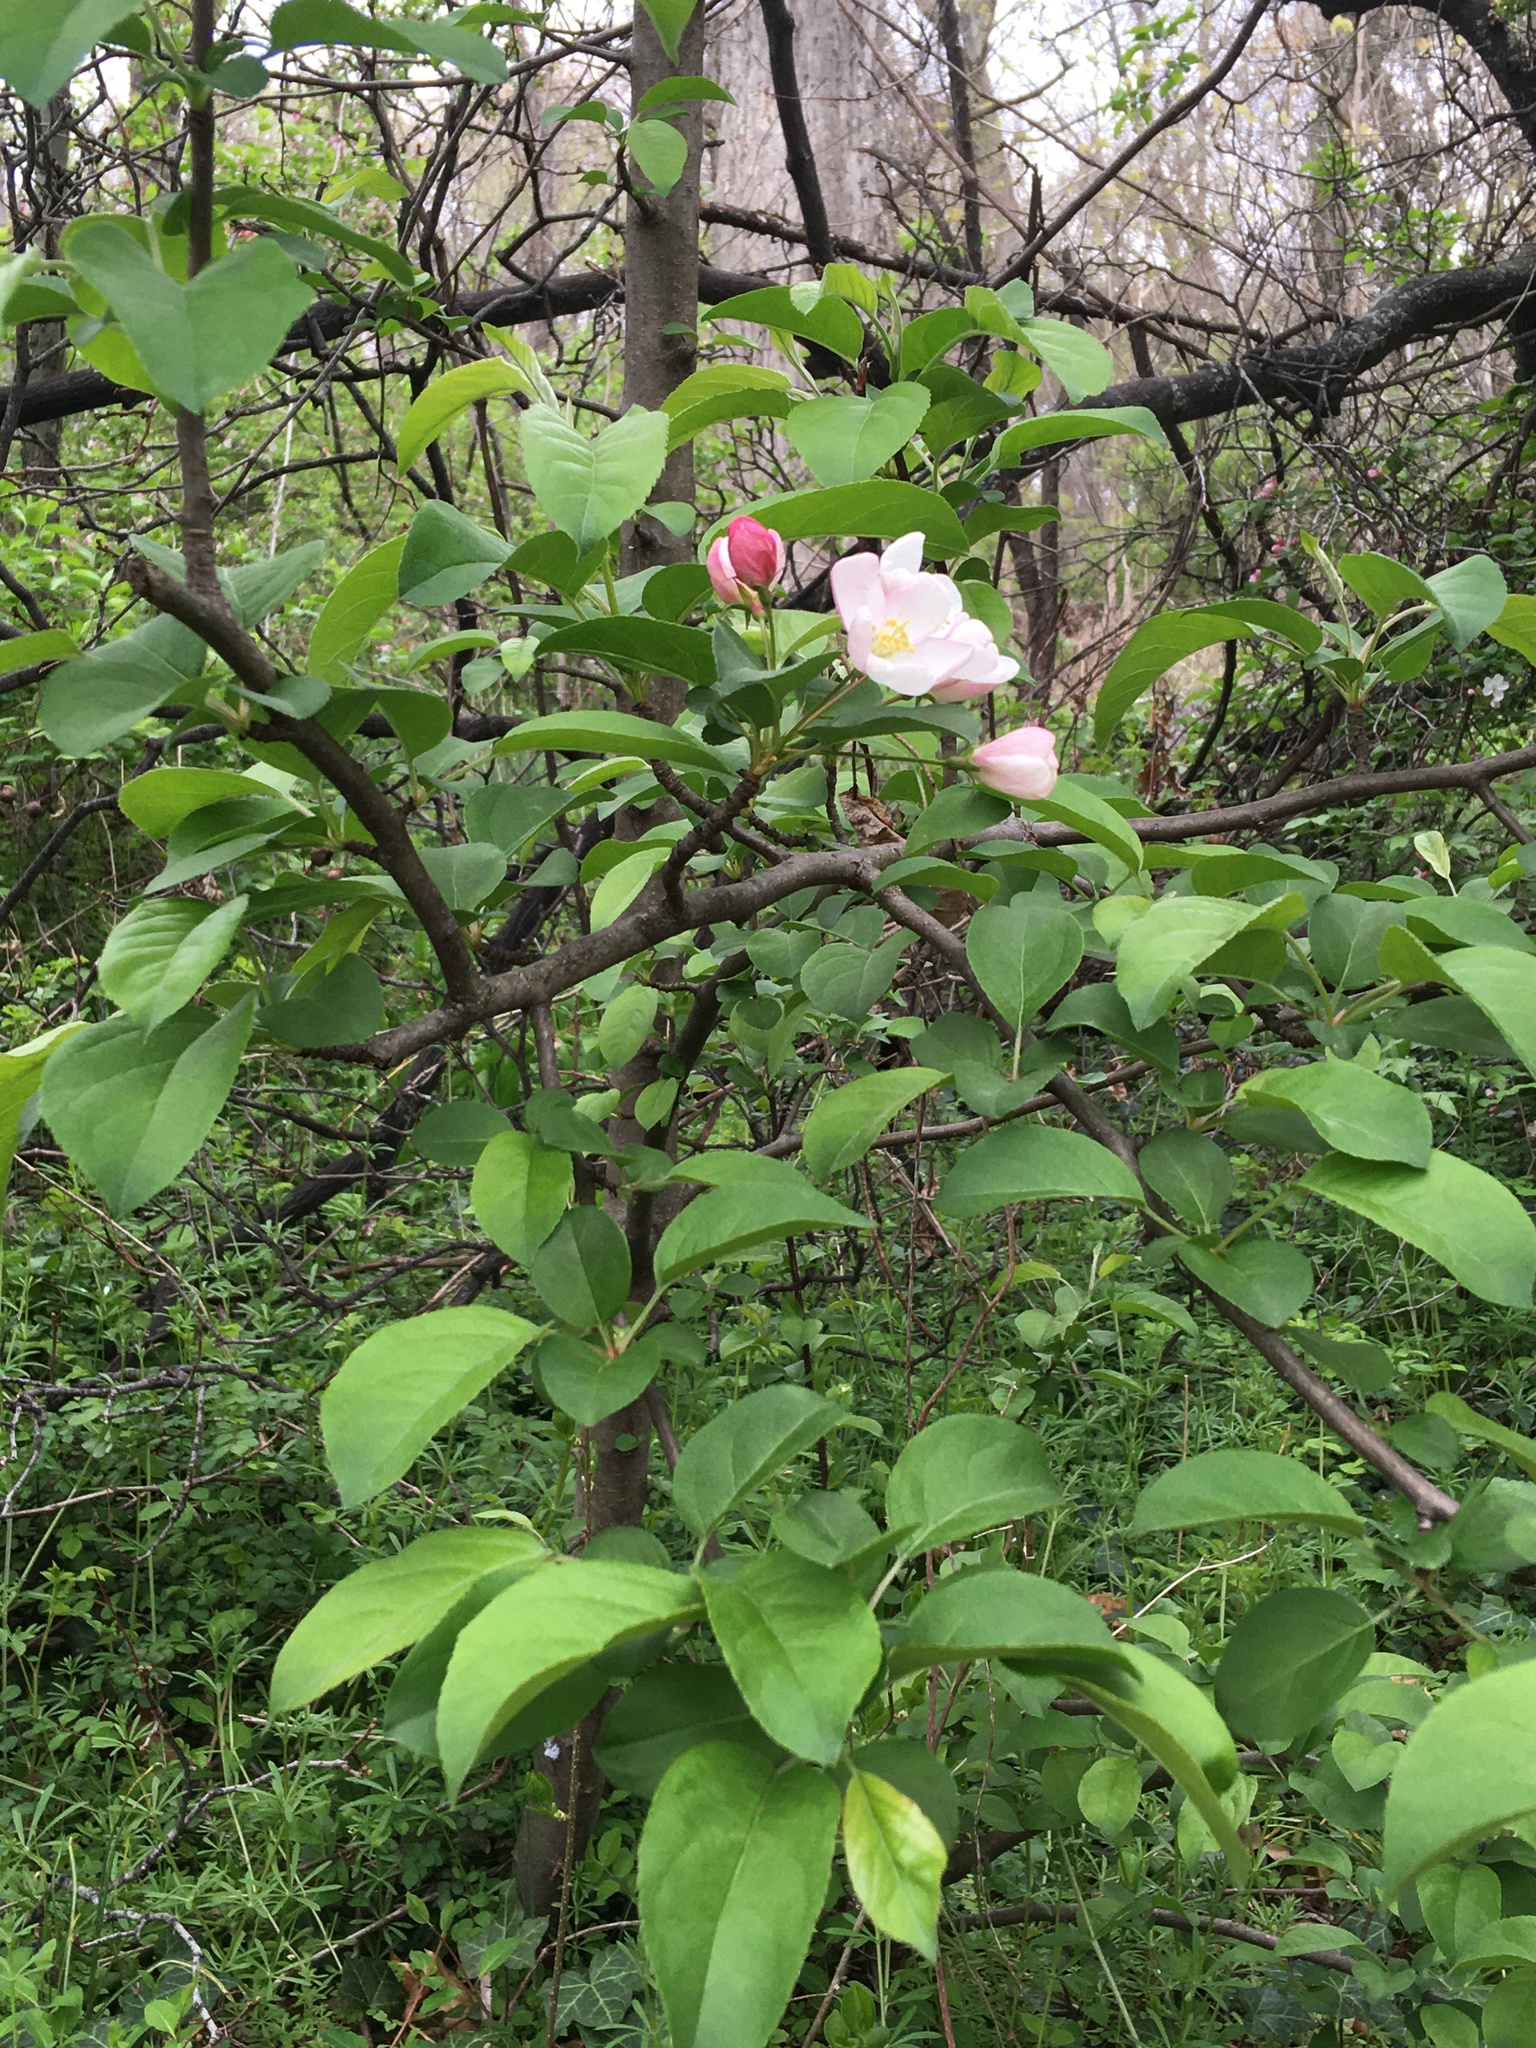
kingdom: Plantae
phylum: Tracheophyta
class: Magnoliopsida
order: Rosales
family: Rosaceae
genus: Malus
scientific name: Malus hupehensis
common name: Chinese crab apple
